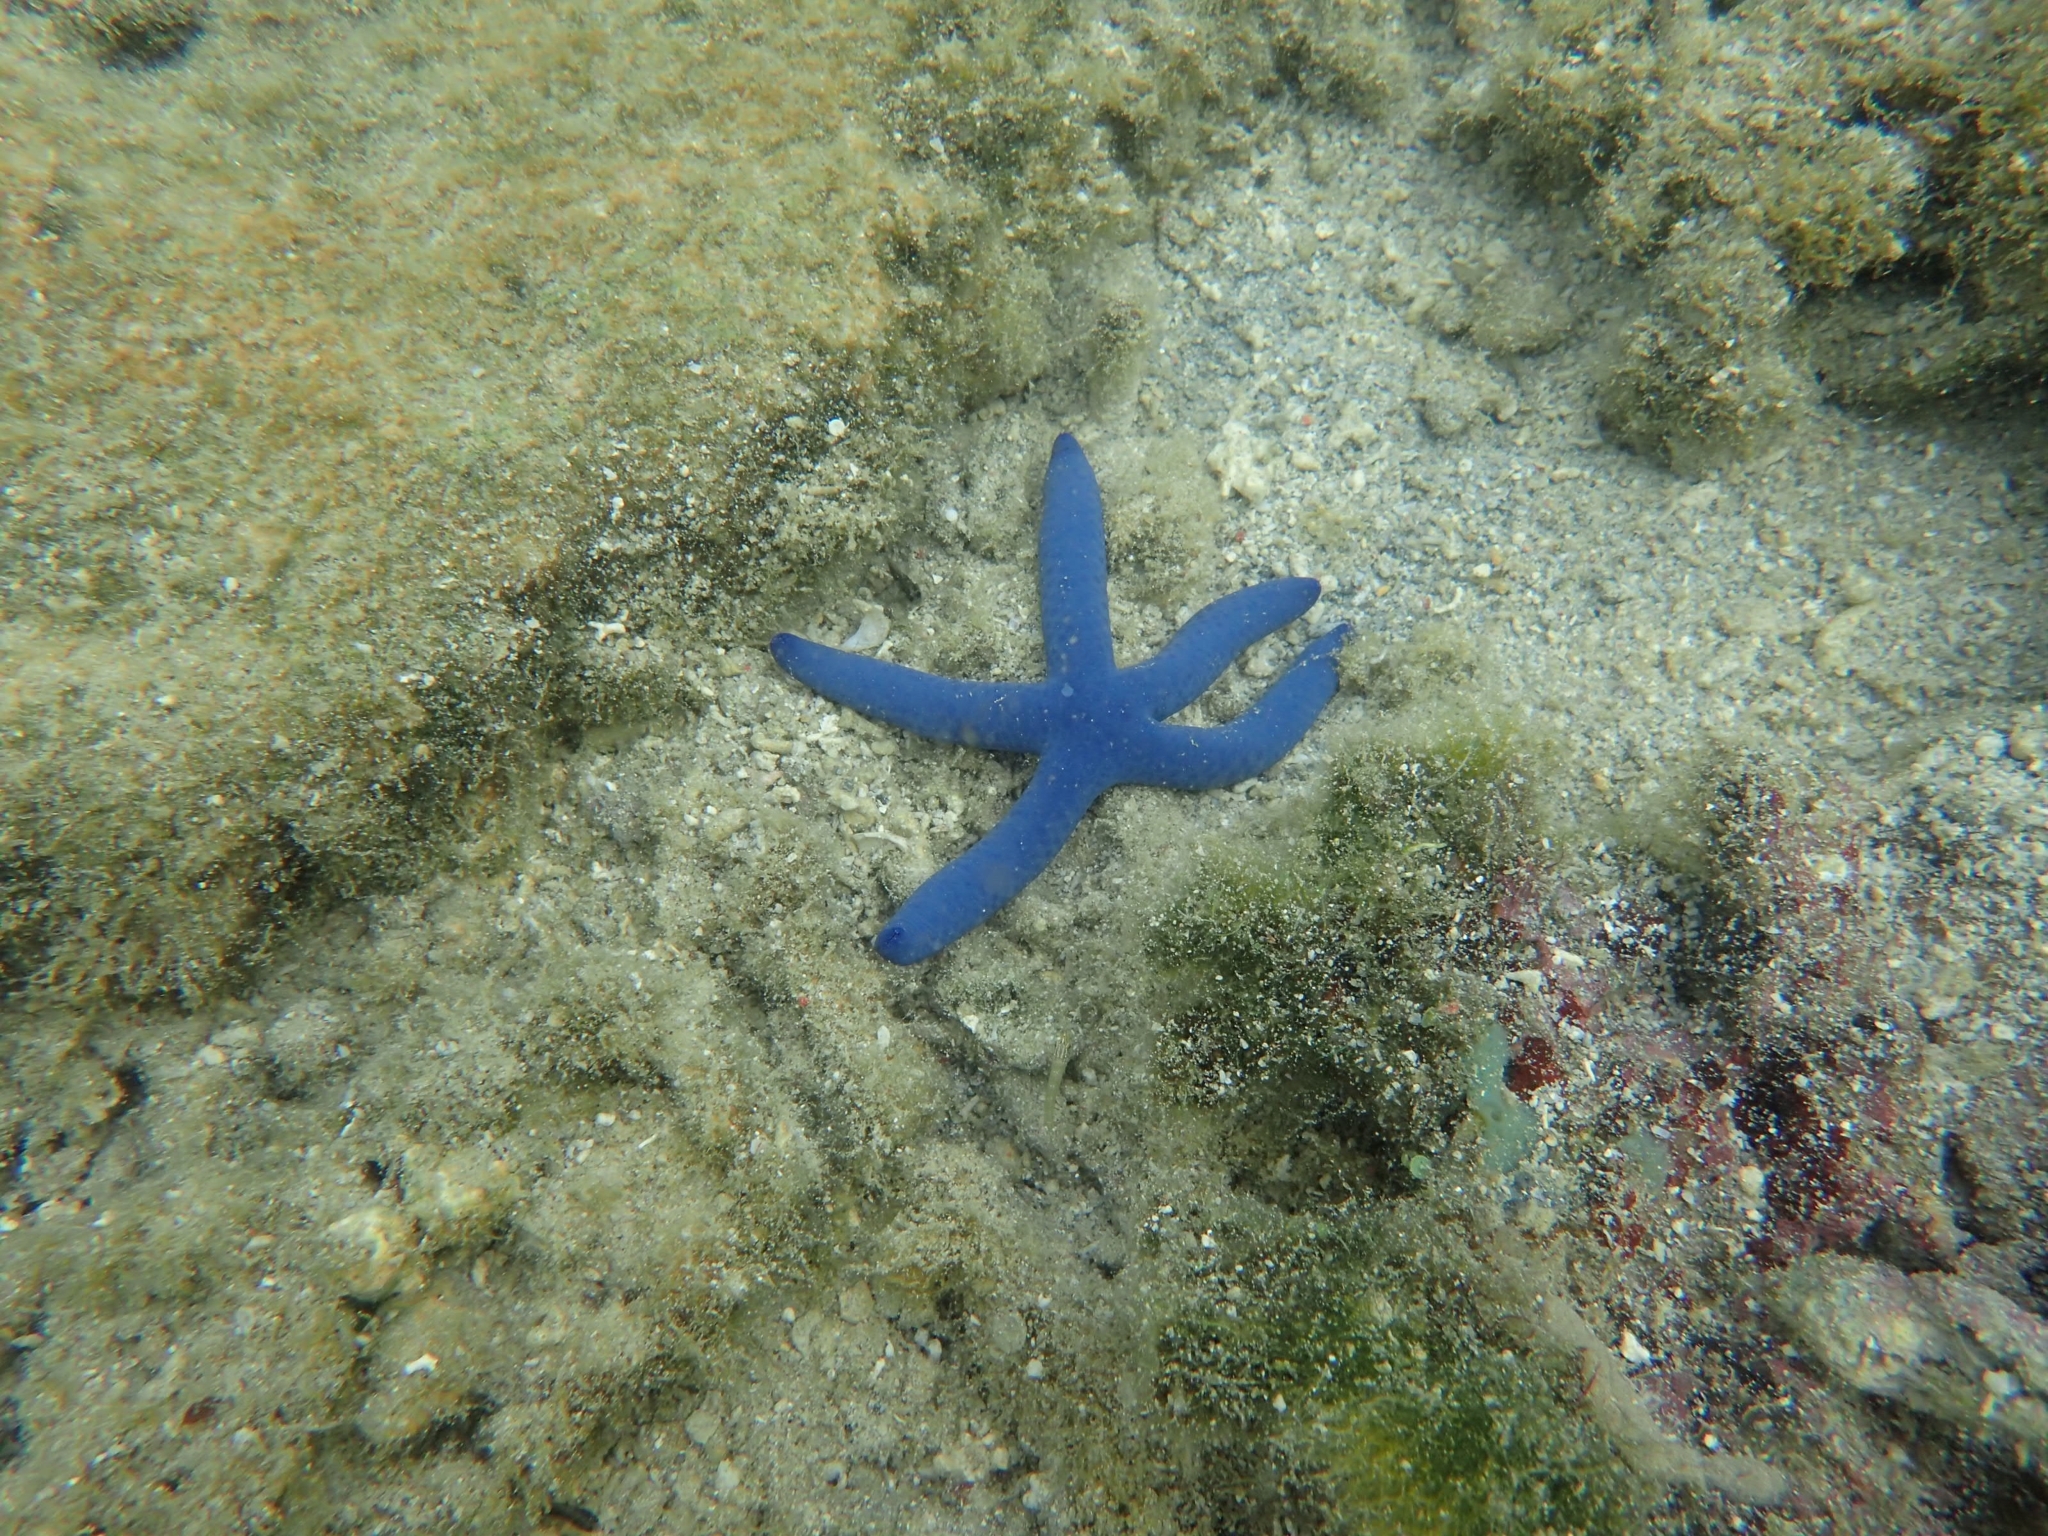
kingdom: Animalia
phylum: Echinodermata
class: Asteroidea
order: Valvatida
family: Ophidiasteridae
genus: Linckia
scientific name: Linckia laevigata
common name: Azure sea star
